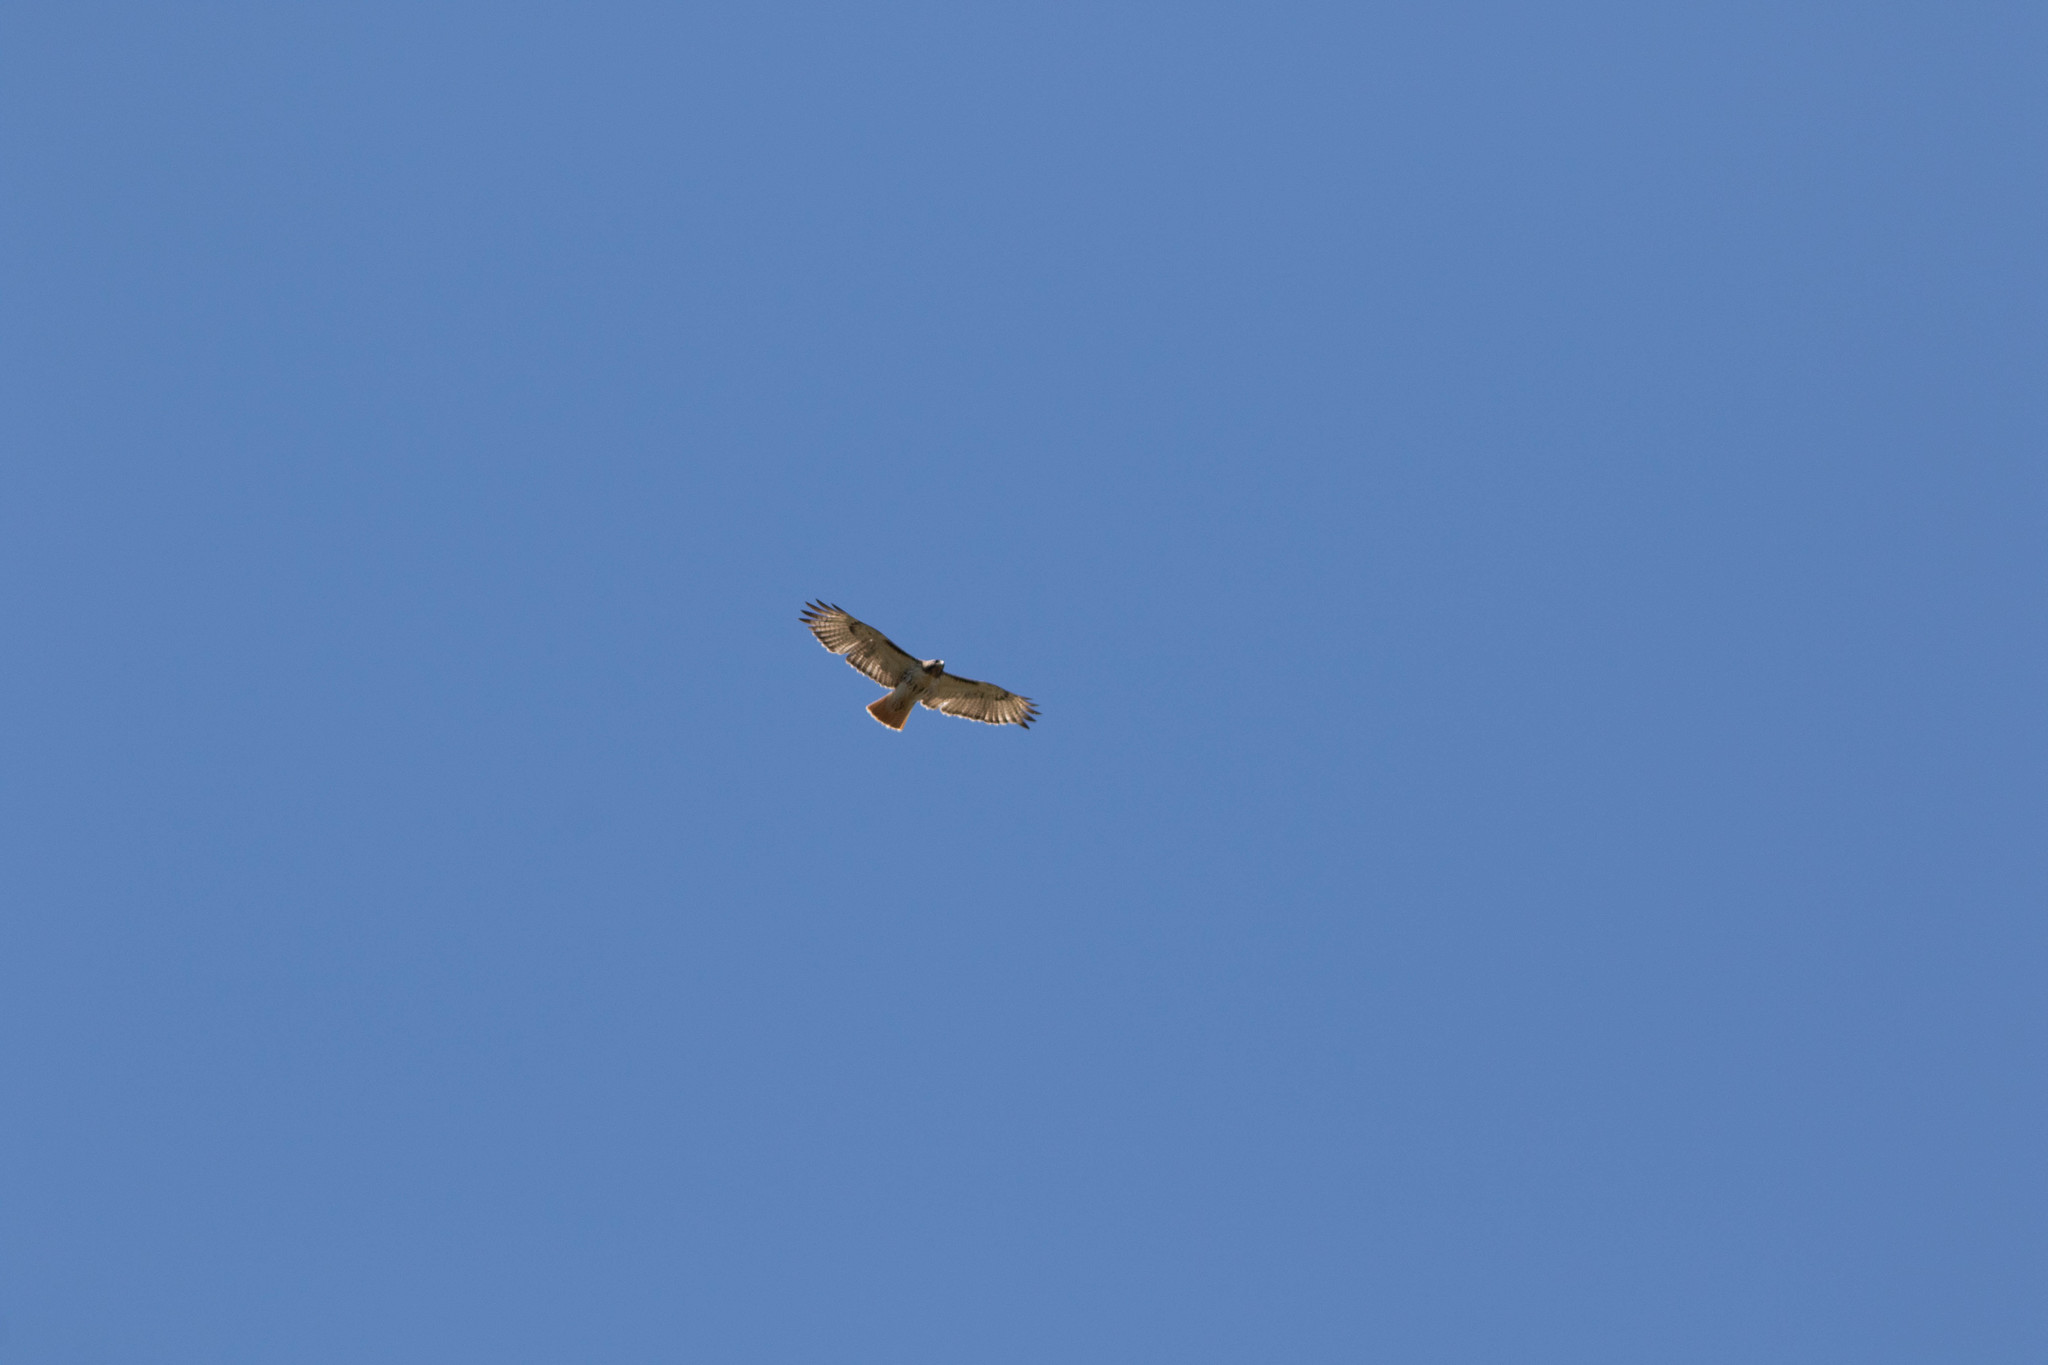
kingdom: Animalia
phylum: Chordata
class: Aves
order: Accipitriformes
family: Accipitridae
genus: Buteo
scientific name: Buteo jamaicensis
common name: Red-tailed hawk
